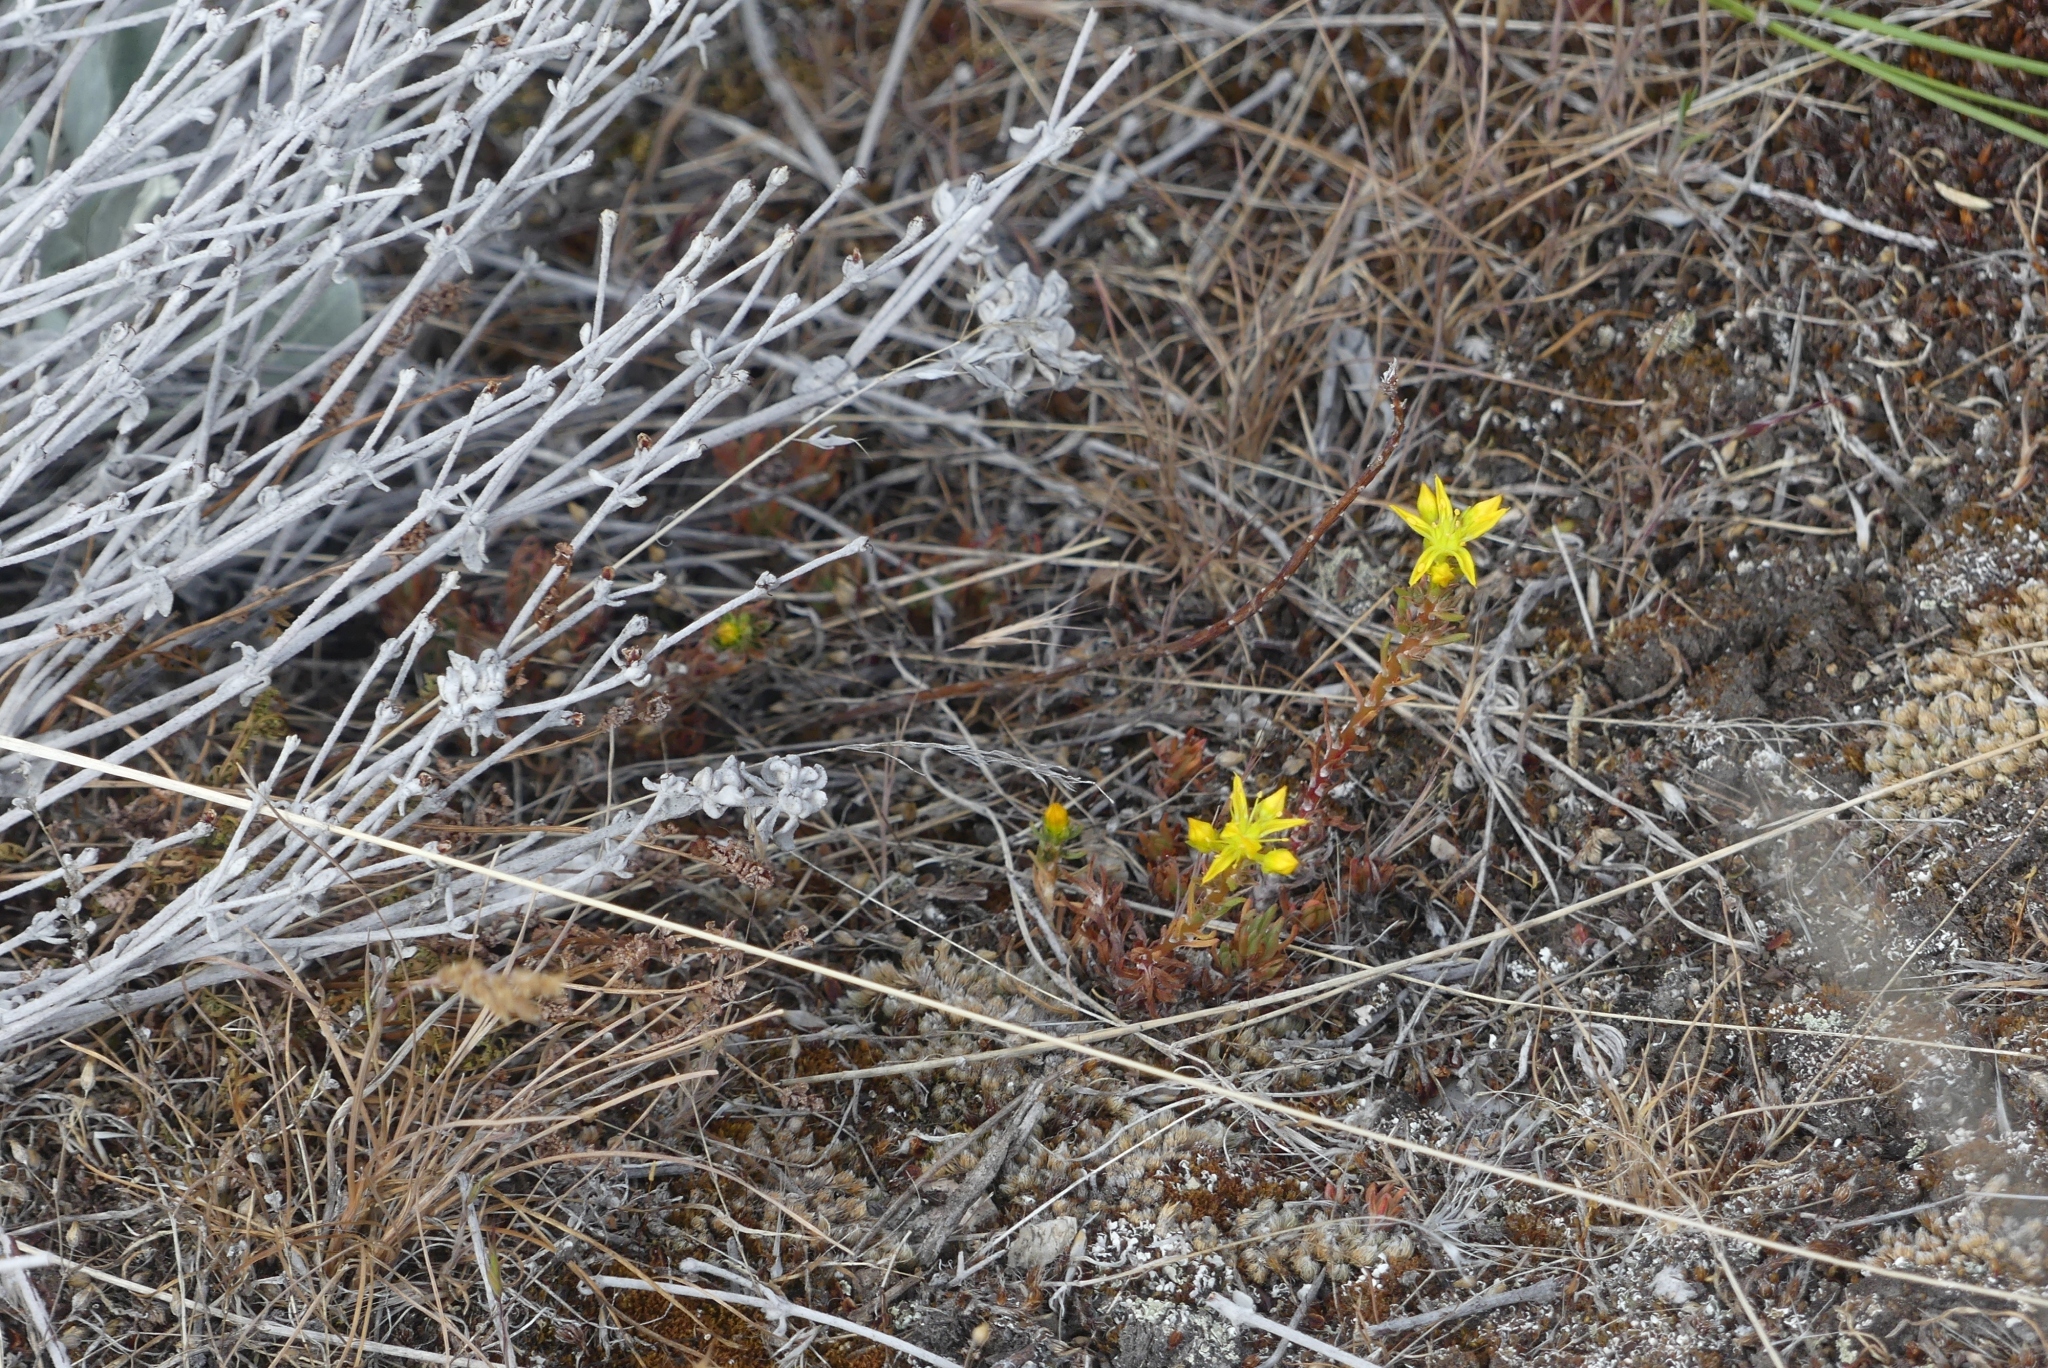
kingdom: Plantae
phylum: Tracheophyta
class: Magnoliopsida
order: Saxifragales
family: Crassulaceae
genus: Sedum
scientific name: Sedum stenopetalum
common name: Narrow-petaled stonecrop
